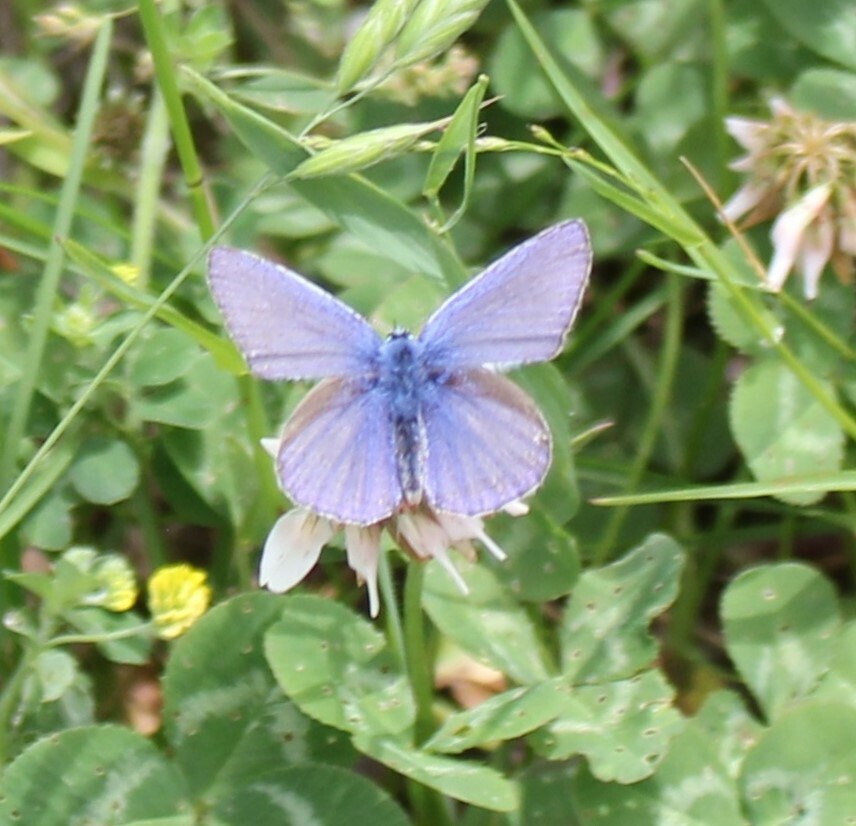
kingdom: Animalia
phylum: Arthropoda
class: Insecta
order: Lepidoptera
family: Lycaenidae
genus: Polyommatus
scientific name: Polyommatus icarus
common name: Common blue
